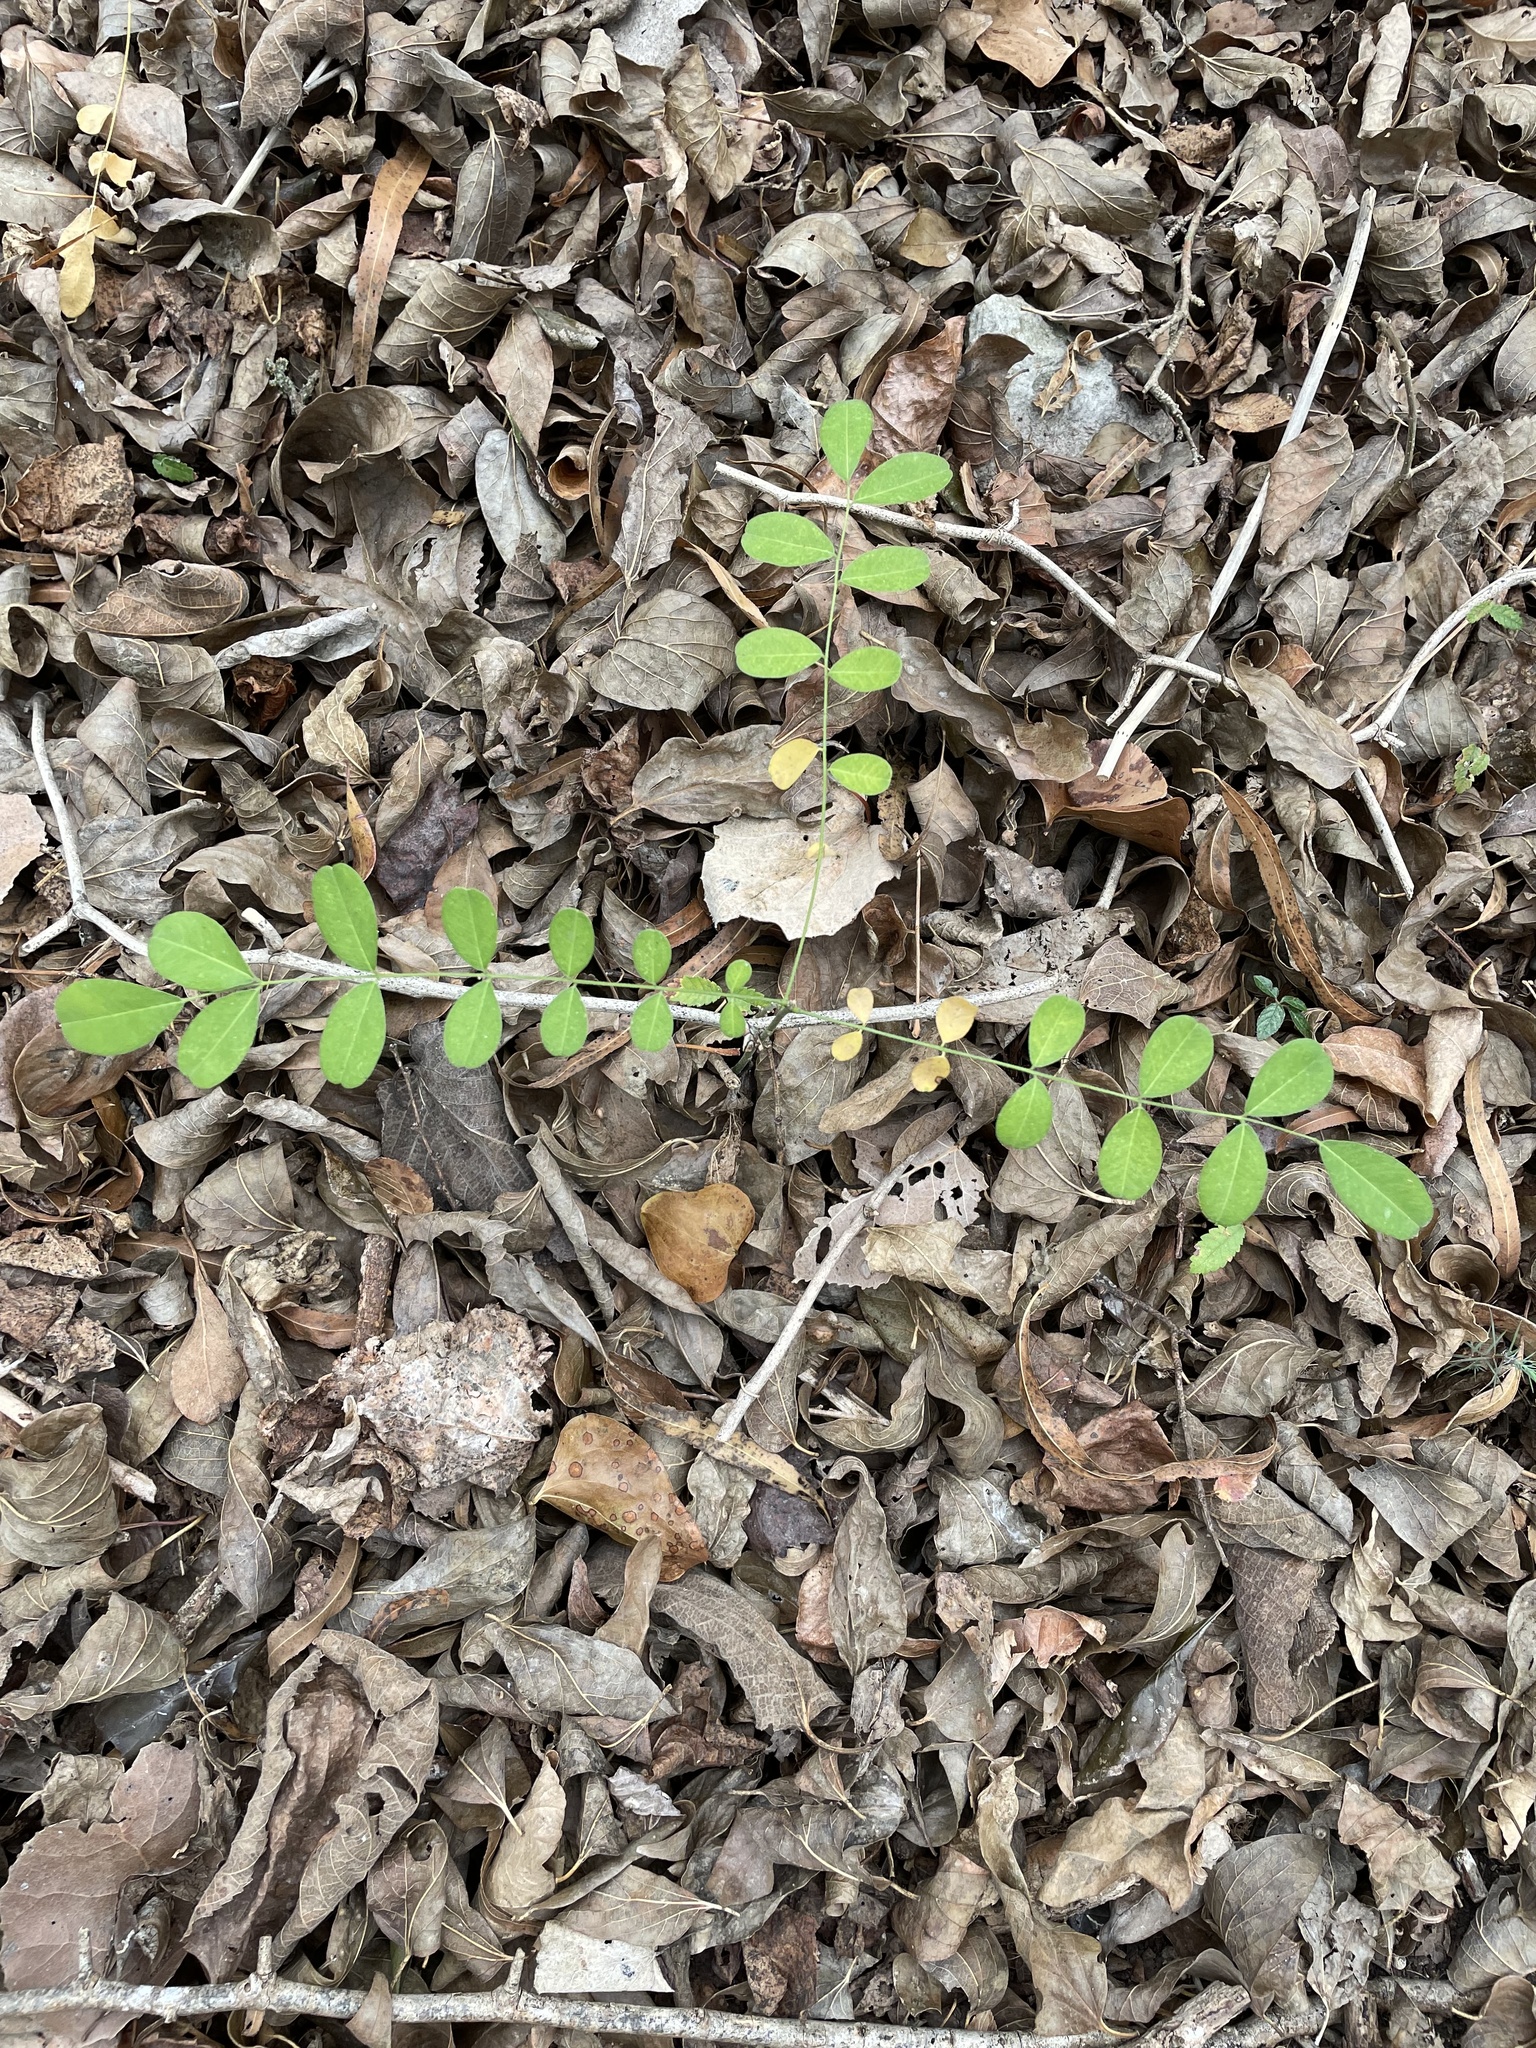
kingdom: Plantae
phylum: Tracheophyta
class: Magnoliopsida
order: Fabales
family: Fabaceae
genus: Styphnolobium
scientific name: Styphnolobium affine
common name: Texas sophora
